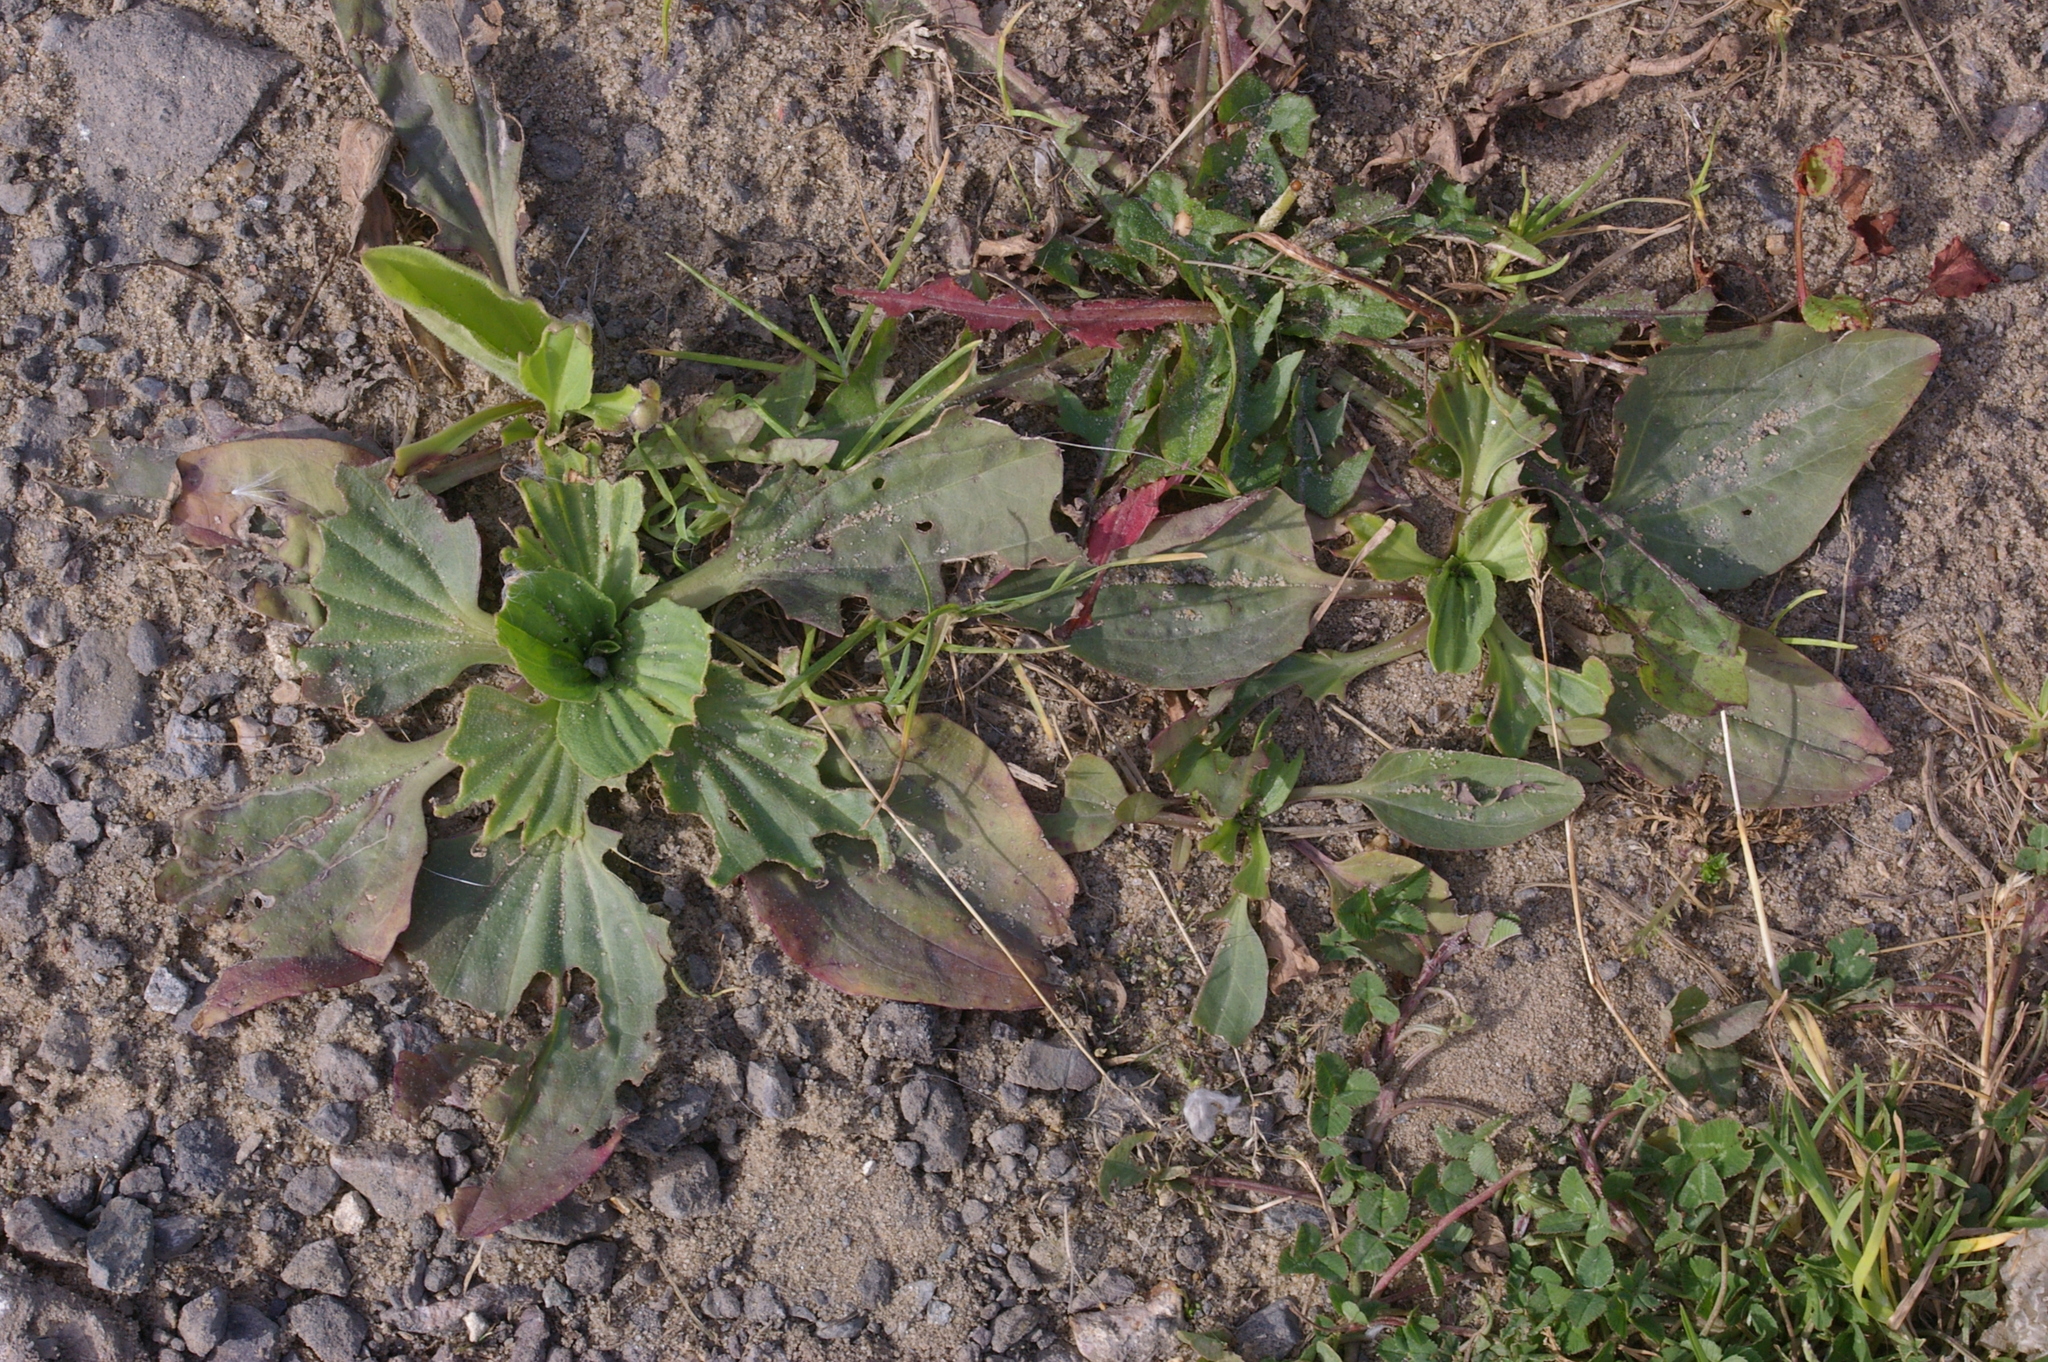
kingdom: Plantae
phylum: Tracheophyta
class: Magnoliopsida
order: Lamiales
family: Plantaginaceae
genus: Plantago
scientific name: Plantago major
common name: Common plantain
